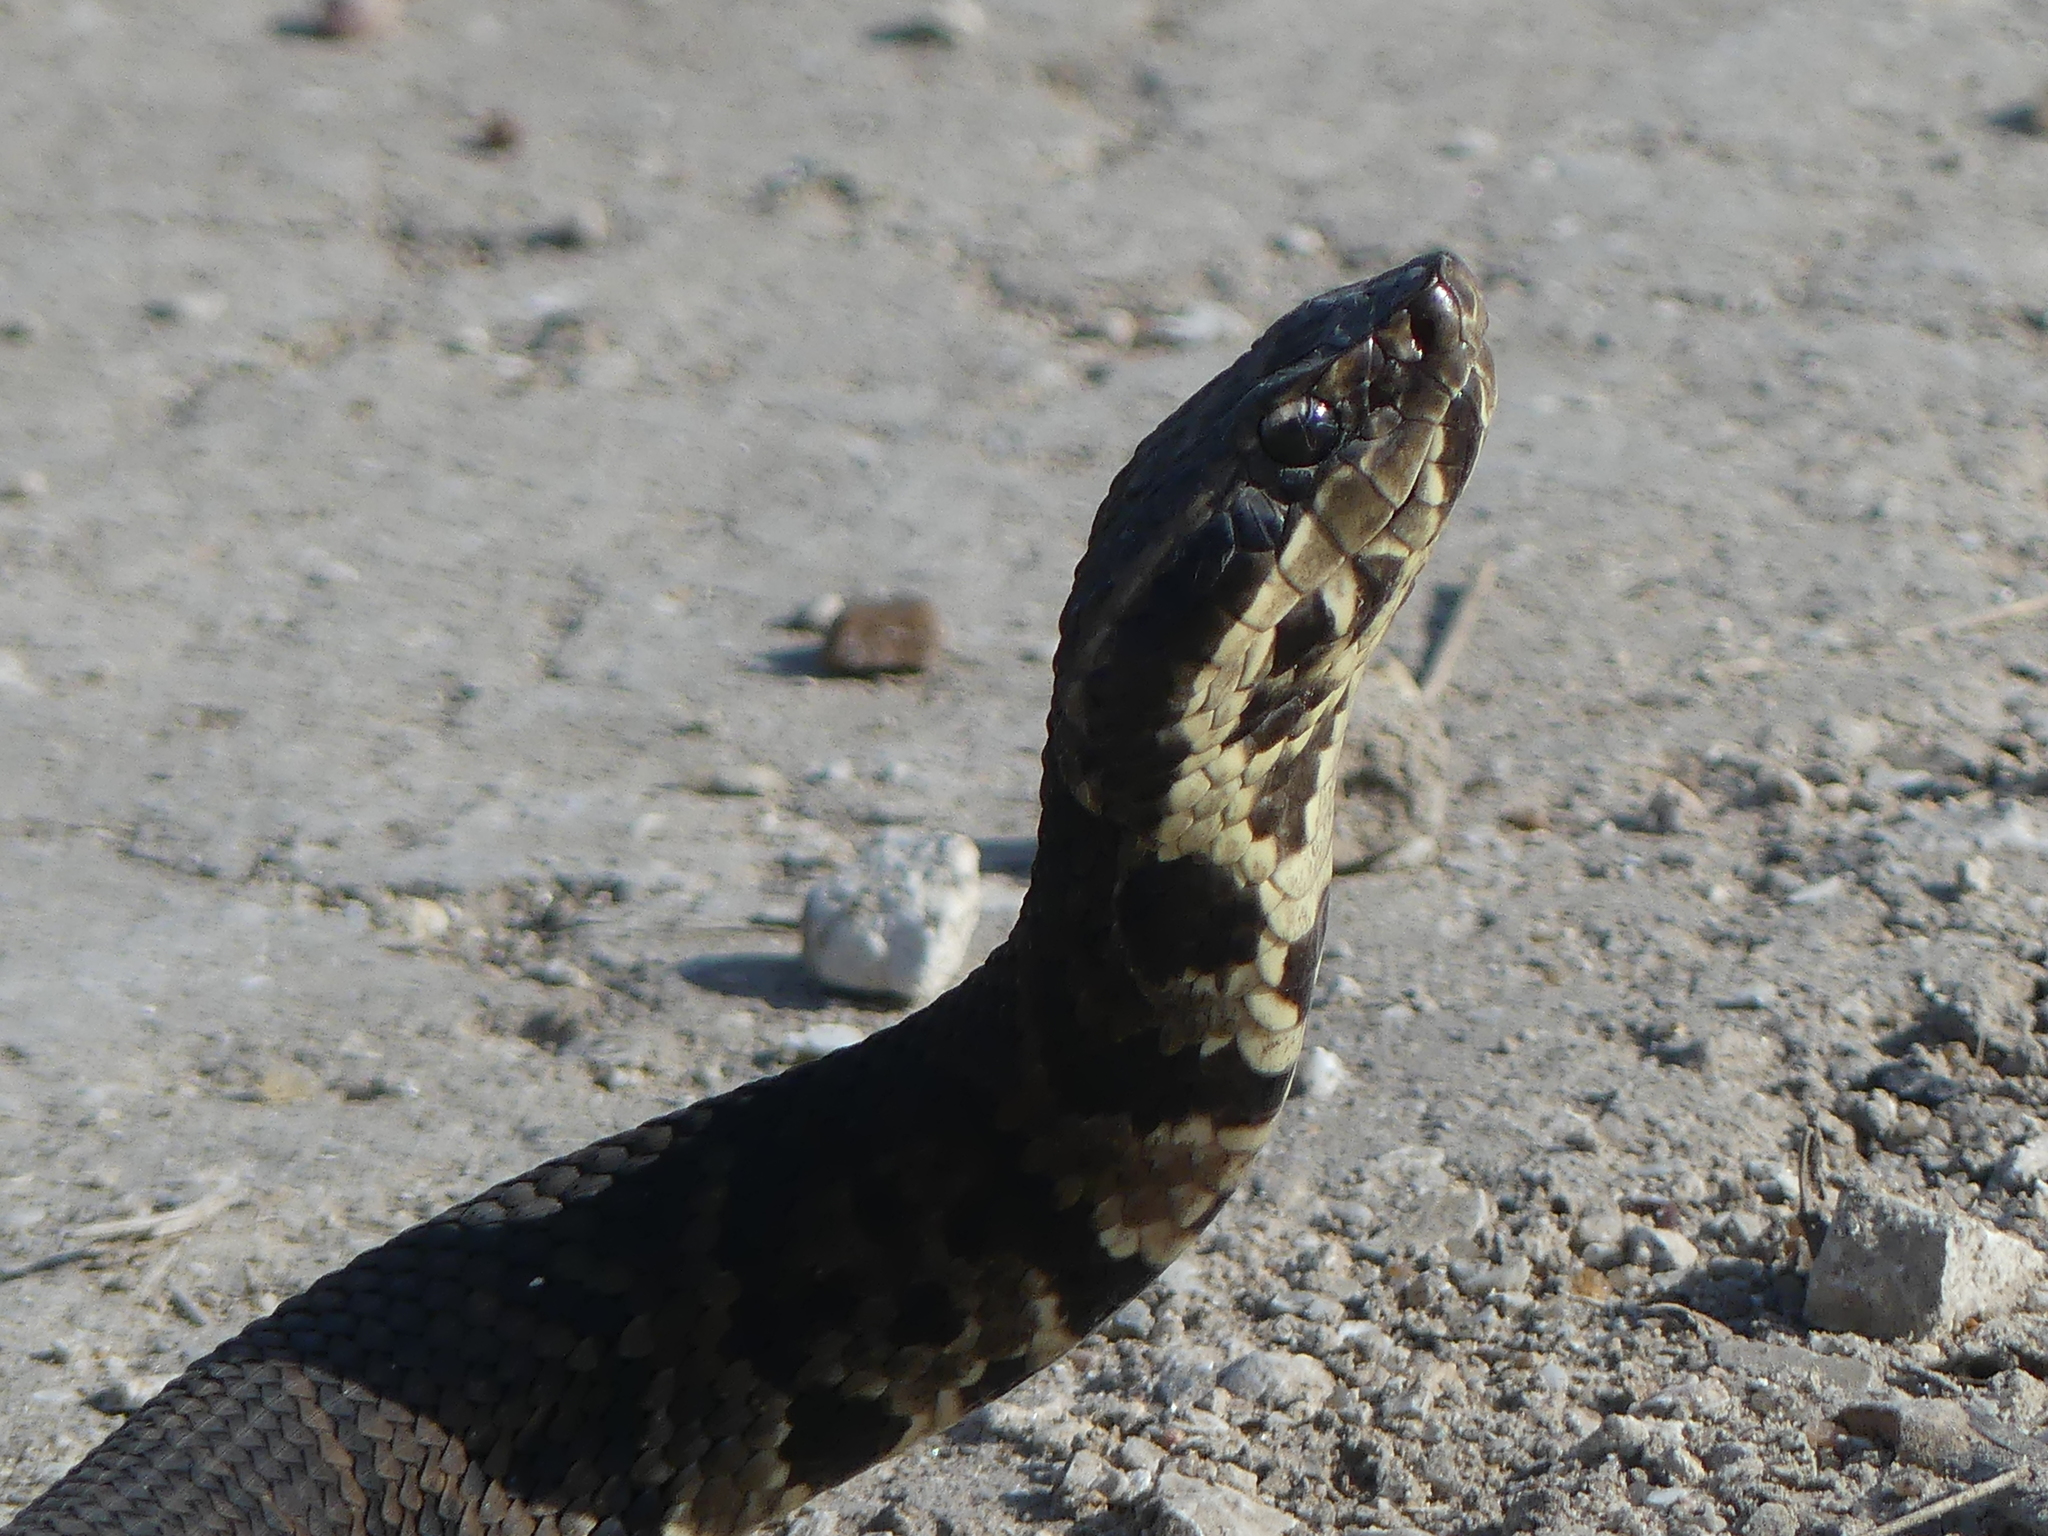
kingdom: Animalia
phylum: Chordata
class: Squamata
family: Viperidae
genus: Agkistrodon
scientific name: Agkistrodon piscivorus
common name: Cottonmouth
